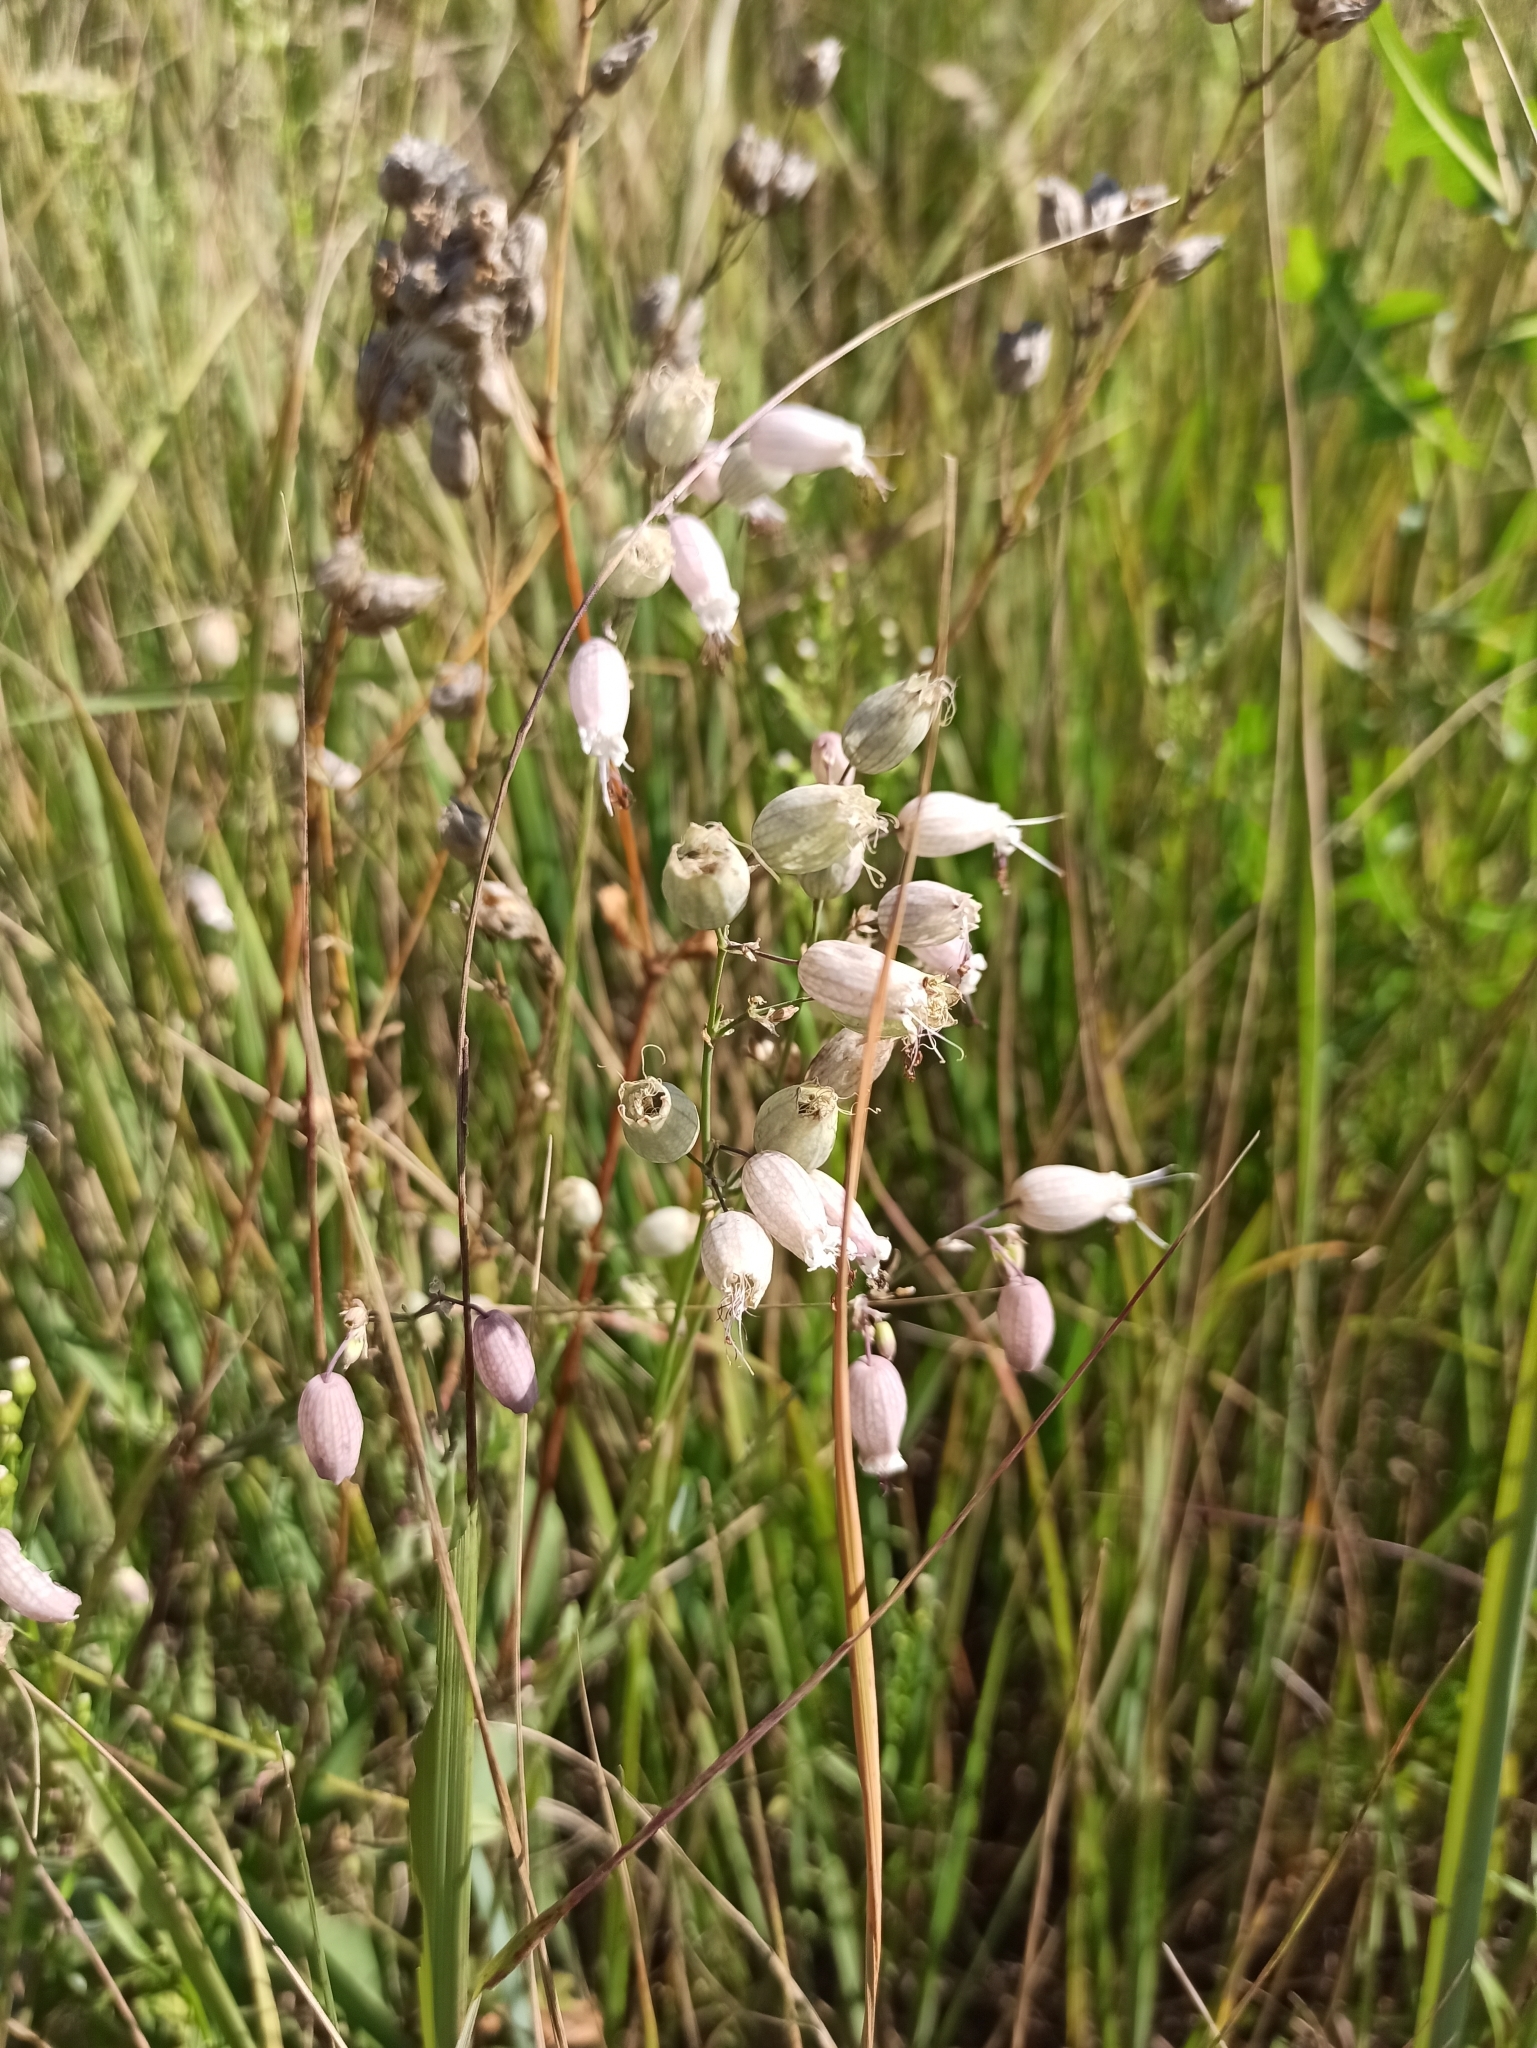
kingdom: Plantae
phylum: Tracheophyta
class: Magnoliopsida
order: Caryophyllales
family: Caryophyllaceae
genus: Silene
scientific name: Silene vulgaris
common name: Bladder campion
